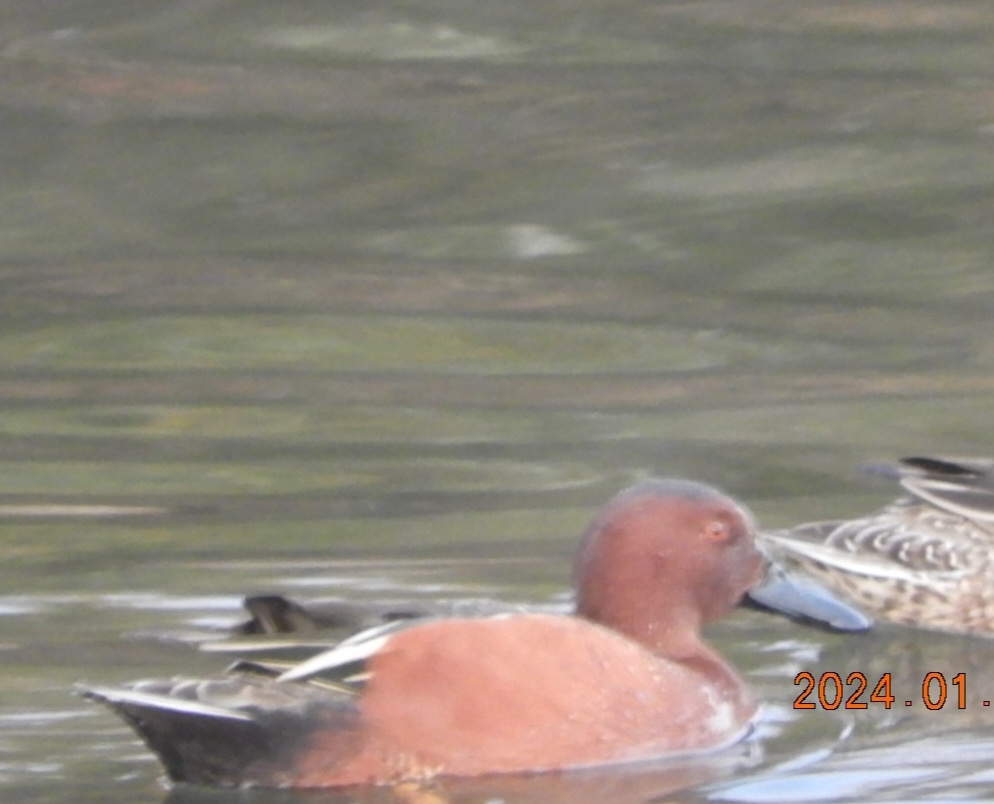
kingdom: Animalia
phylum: Chordata
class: Aves
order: Anseriformes
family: Anatidae
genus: Spatula
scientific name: Spatula cyanoptera
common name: Cinnamon teal
